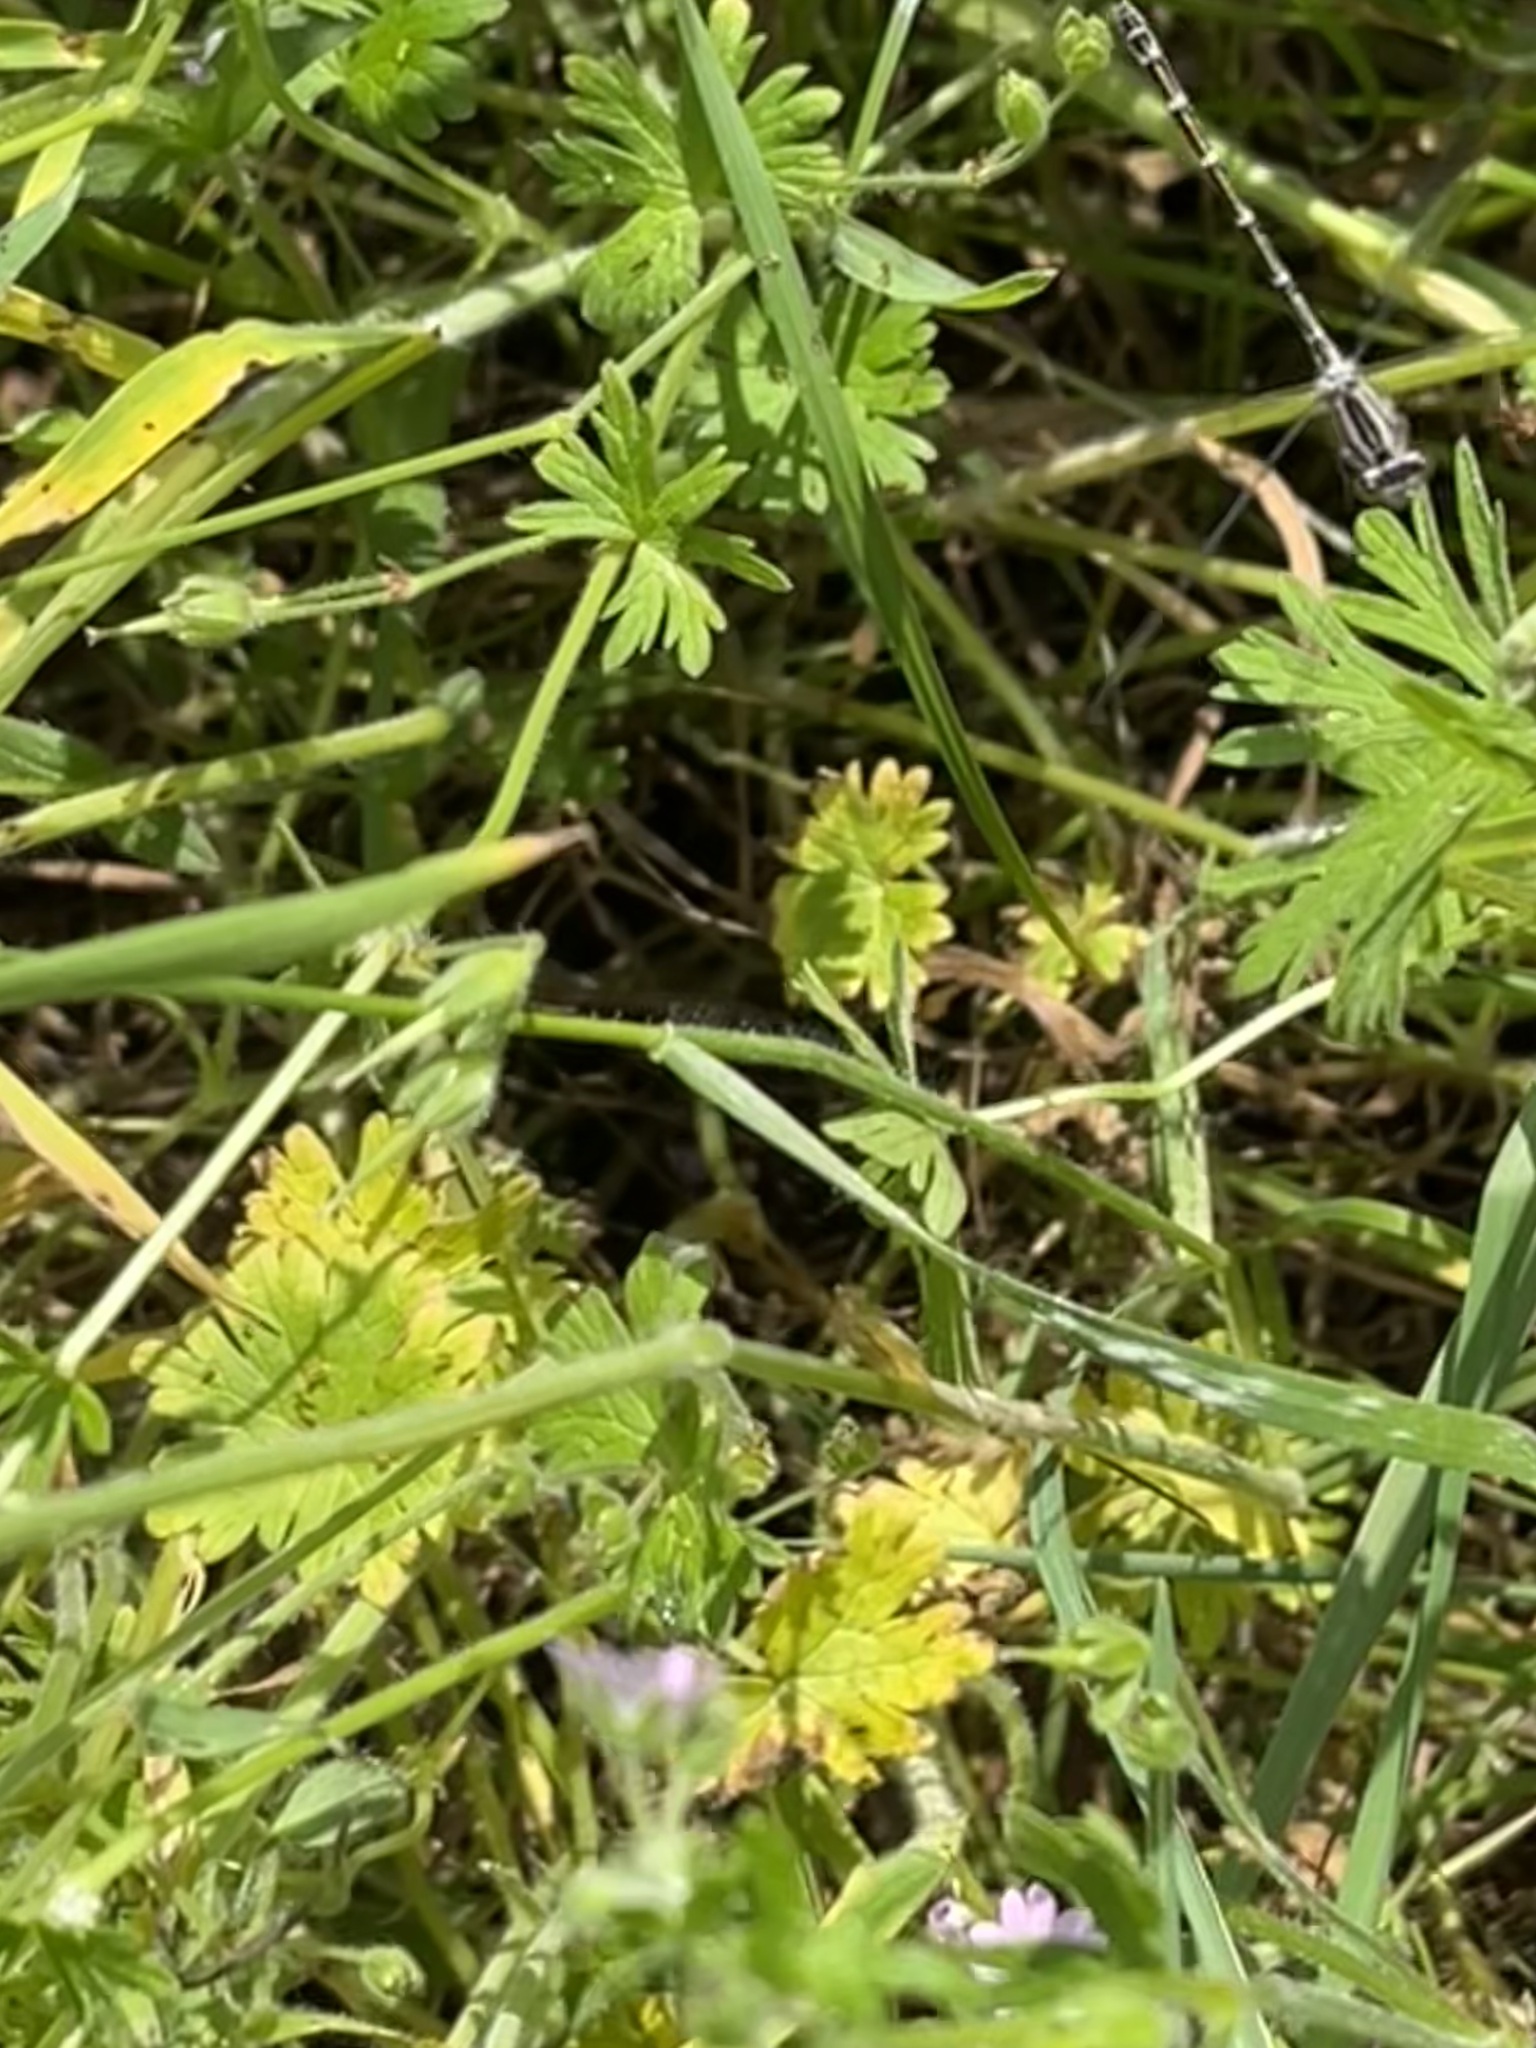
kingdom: Animalia
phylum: Arthropoda
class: Insecta
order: Odonata
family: Coenagrionidae
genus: Enallagma
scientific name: Enallagma cyathigerum
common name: Common blue damselfly
